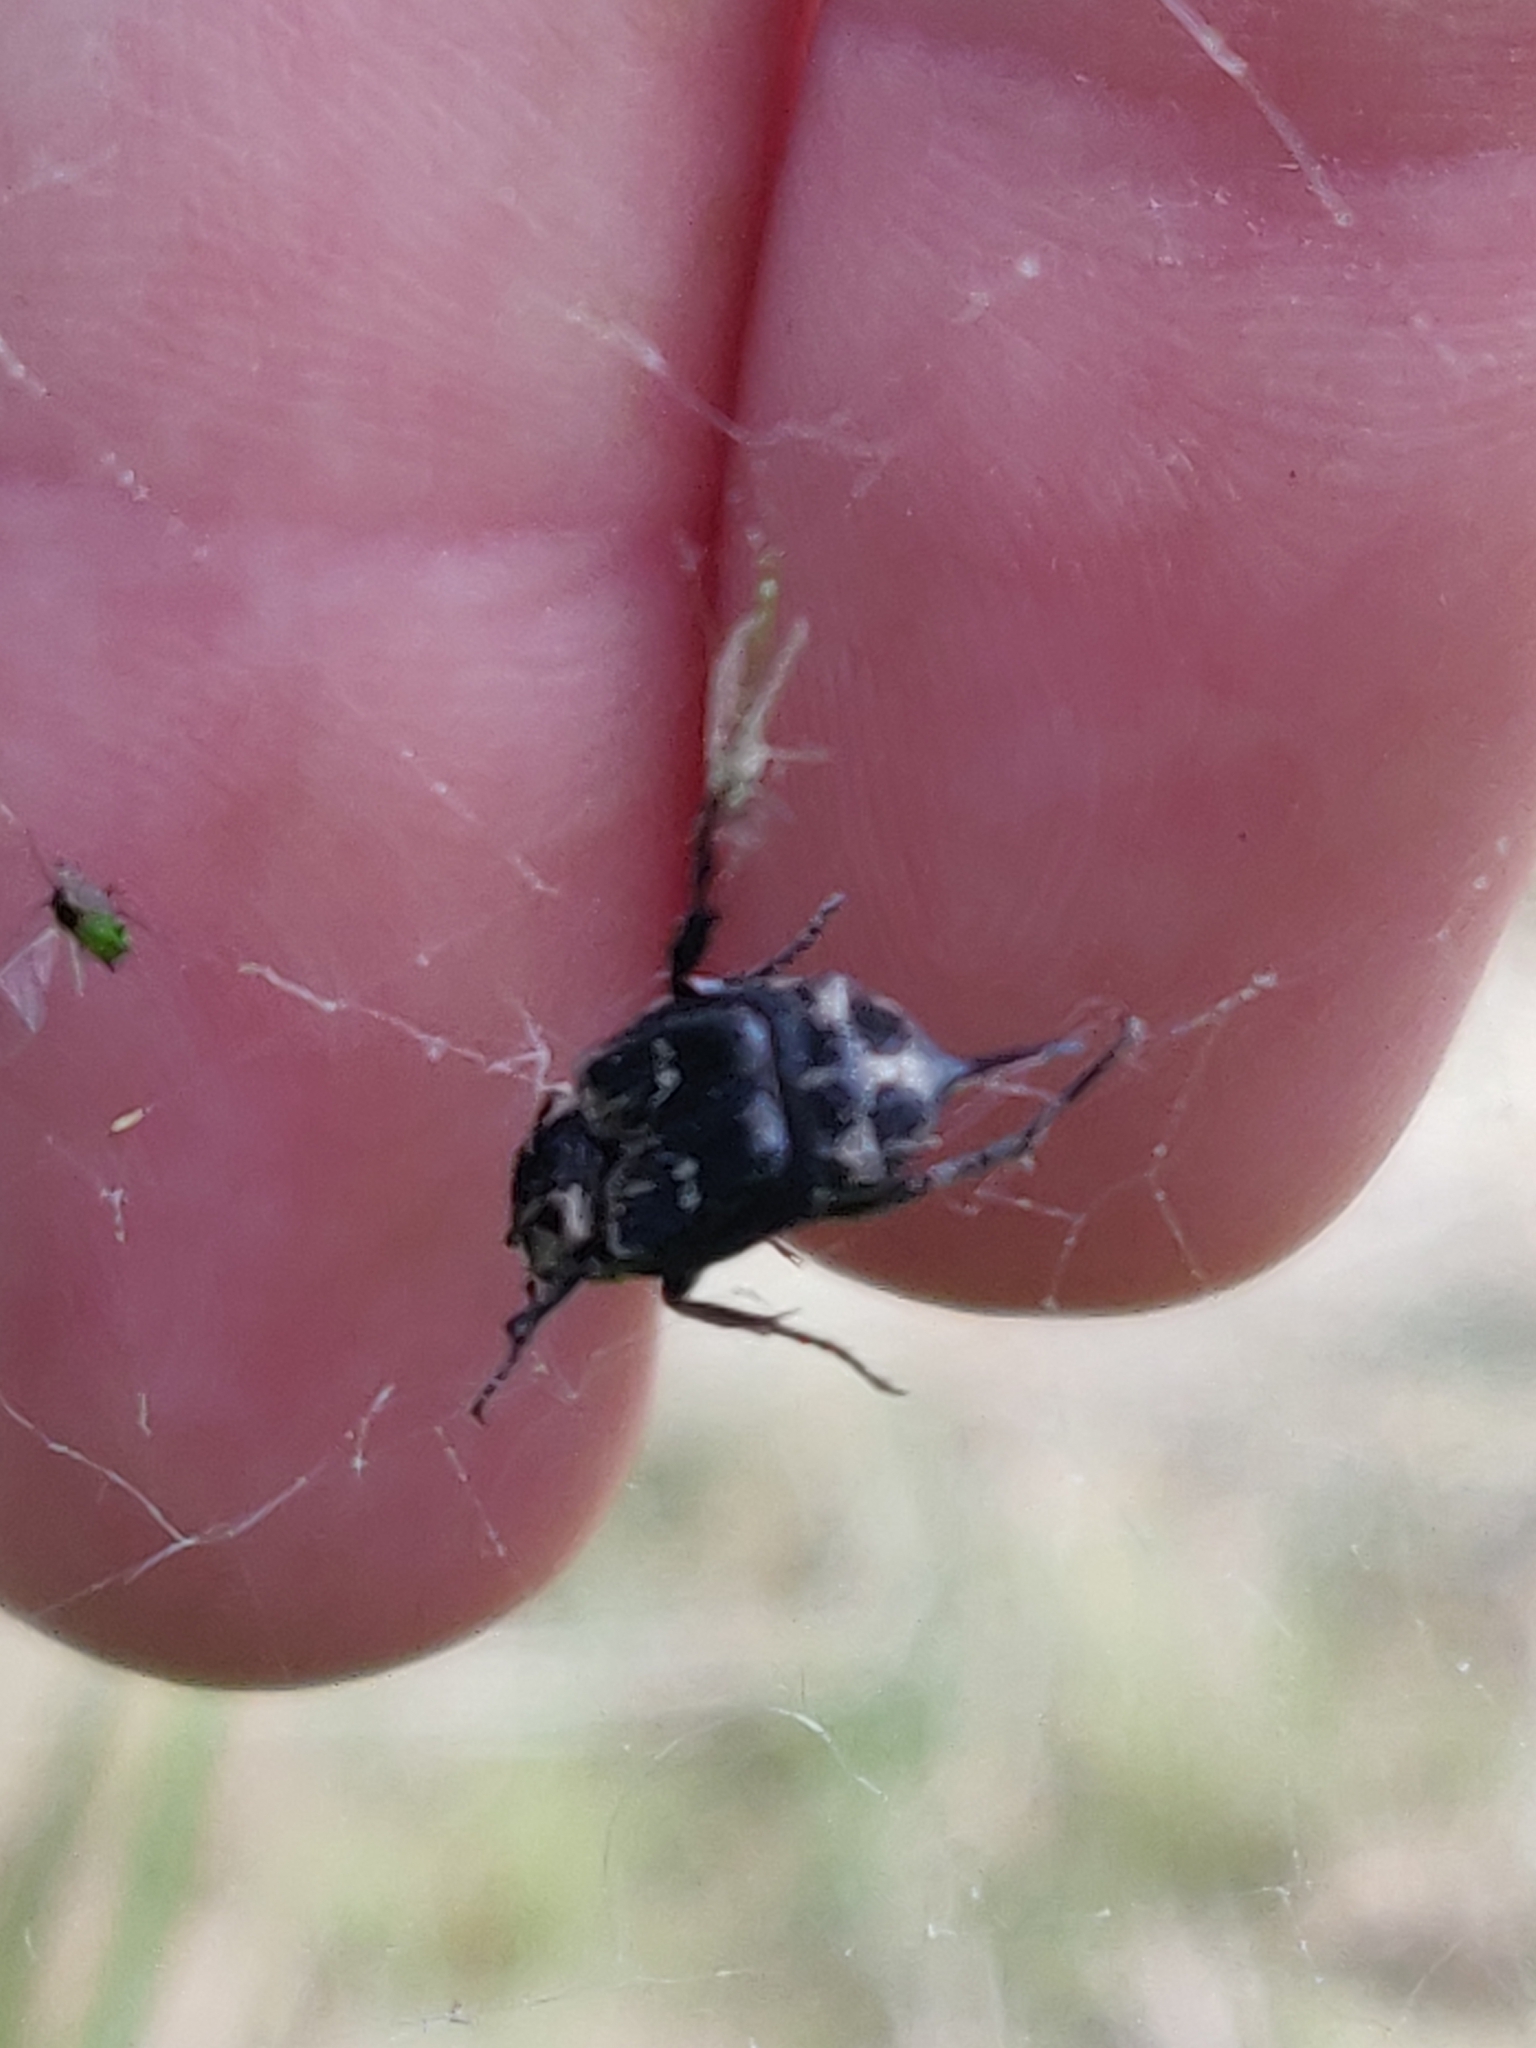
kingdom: Animalia
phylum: Arthropoda
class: Insecta
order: Coleoptera
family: Scarabaeidae
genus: Valgus
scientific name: Valgus hemipterus
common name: Bug flower chafer
